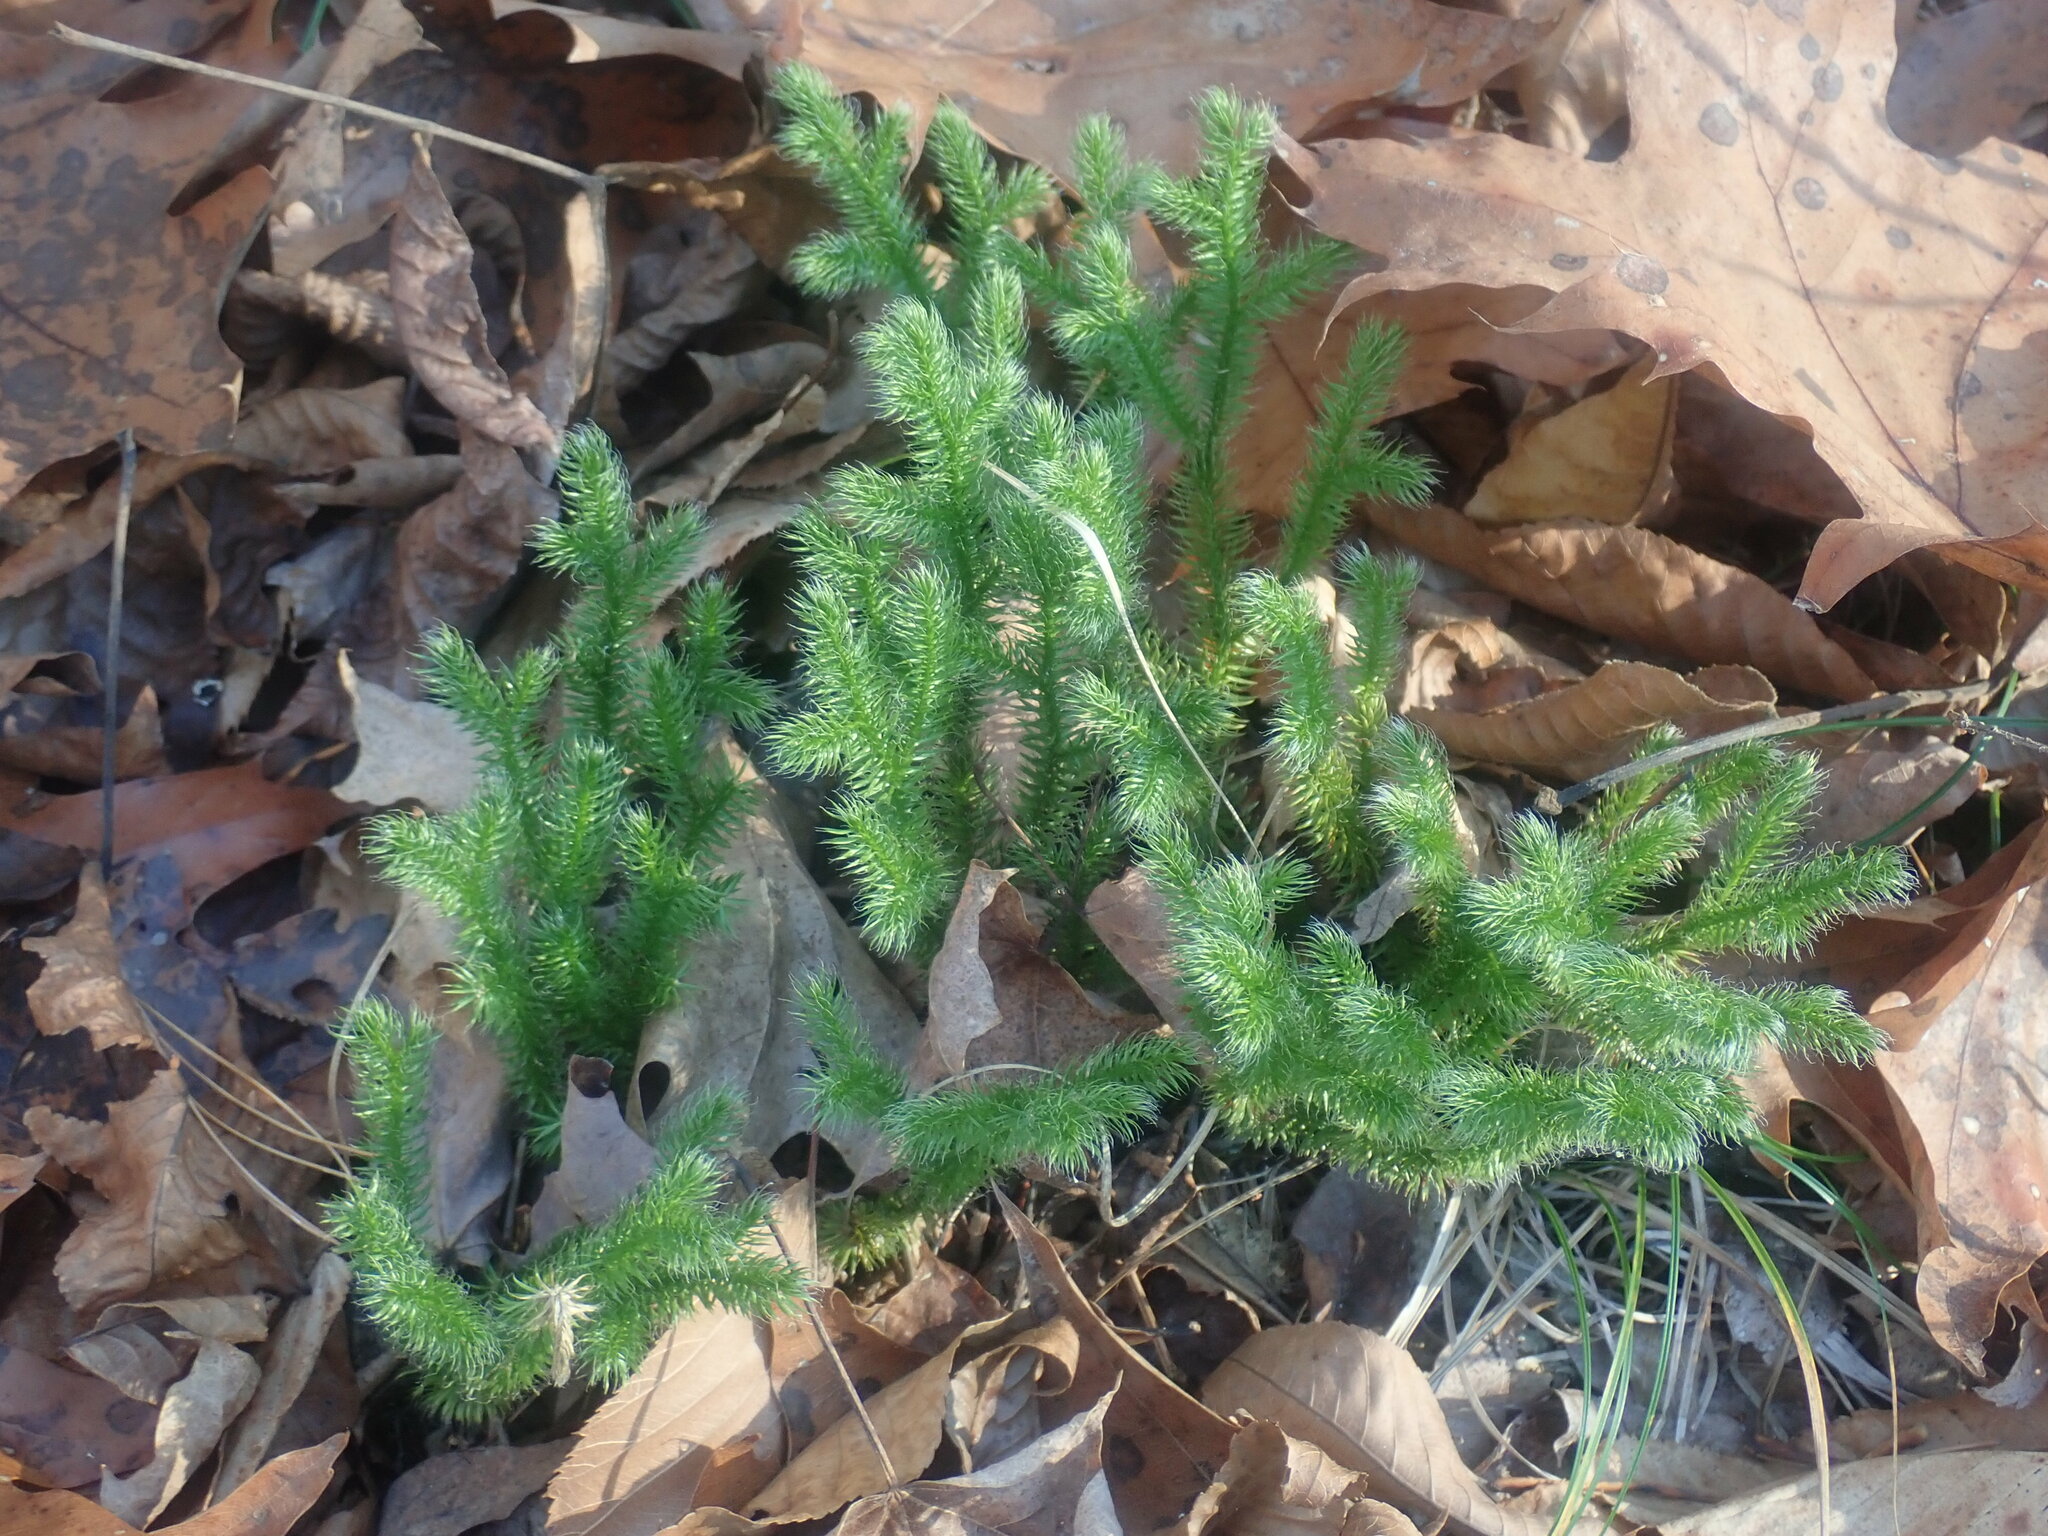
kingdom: Plantae
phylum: Tracheophyta
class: Lycopodiopsida
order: Lycopodiales
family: Lycopodiaceae
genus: Lycopodium
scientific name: Lycopodium clavatum
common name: Stag's-horn clubmoss
